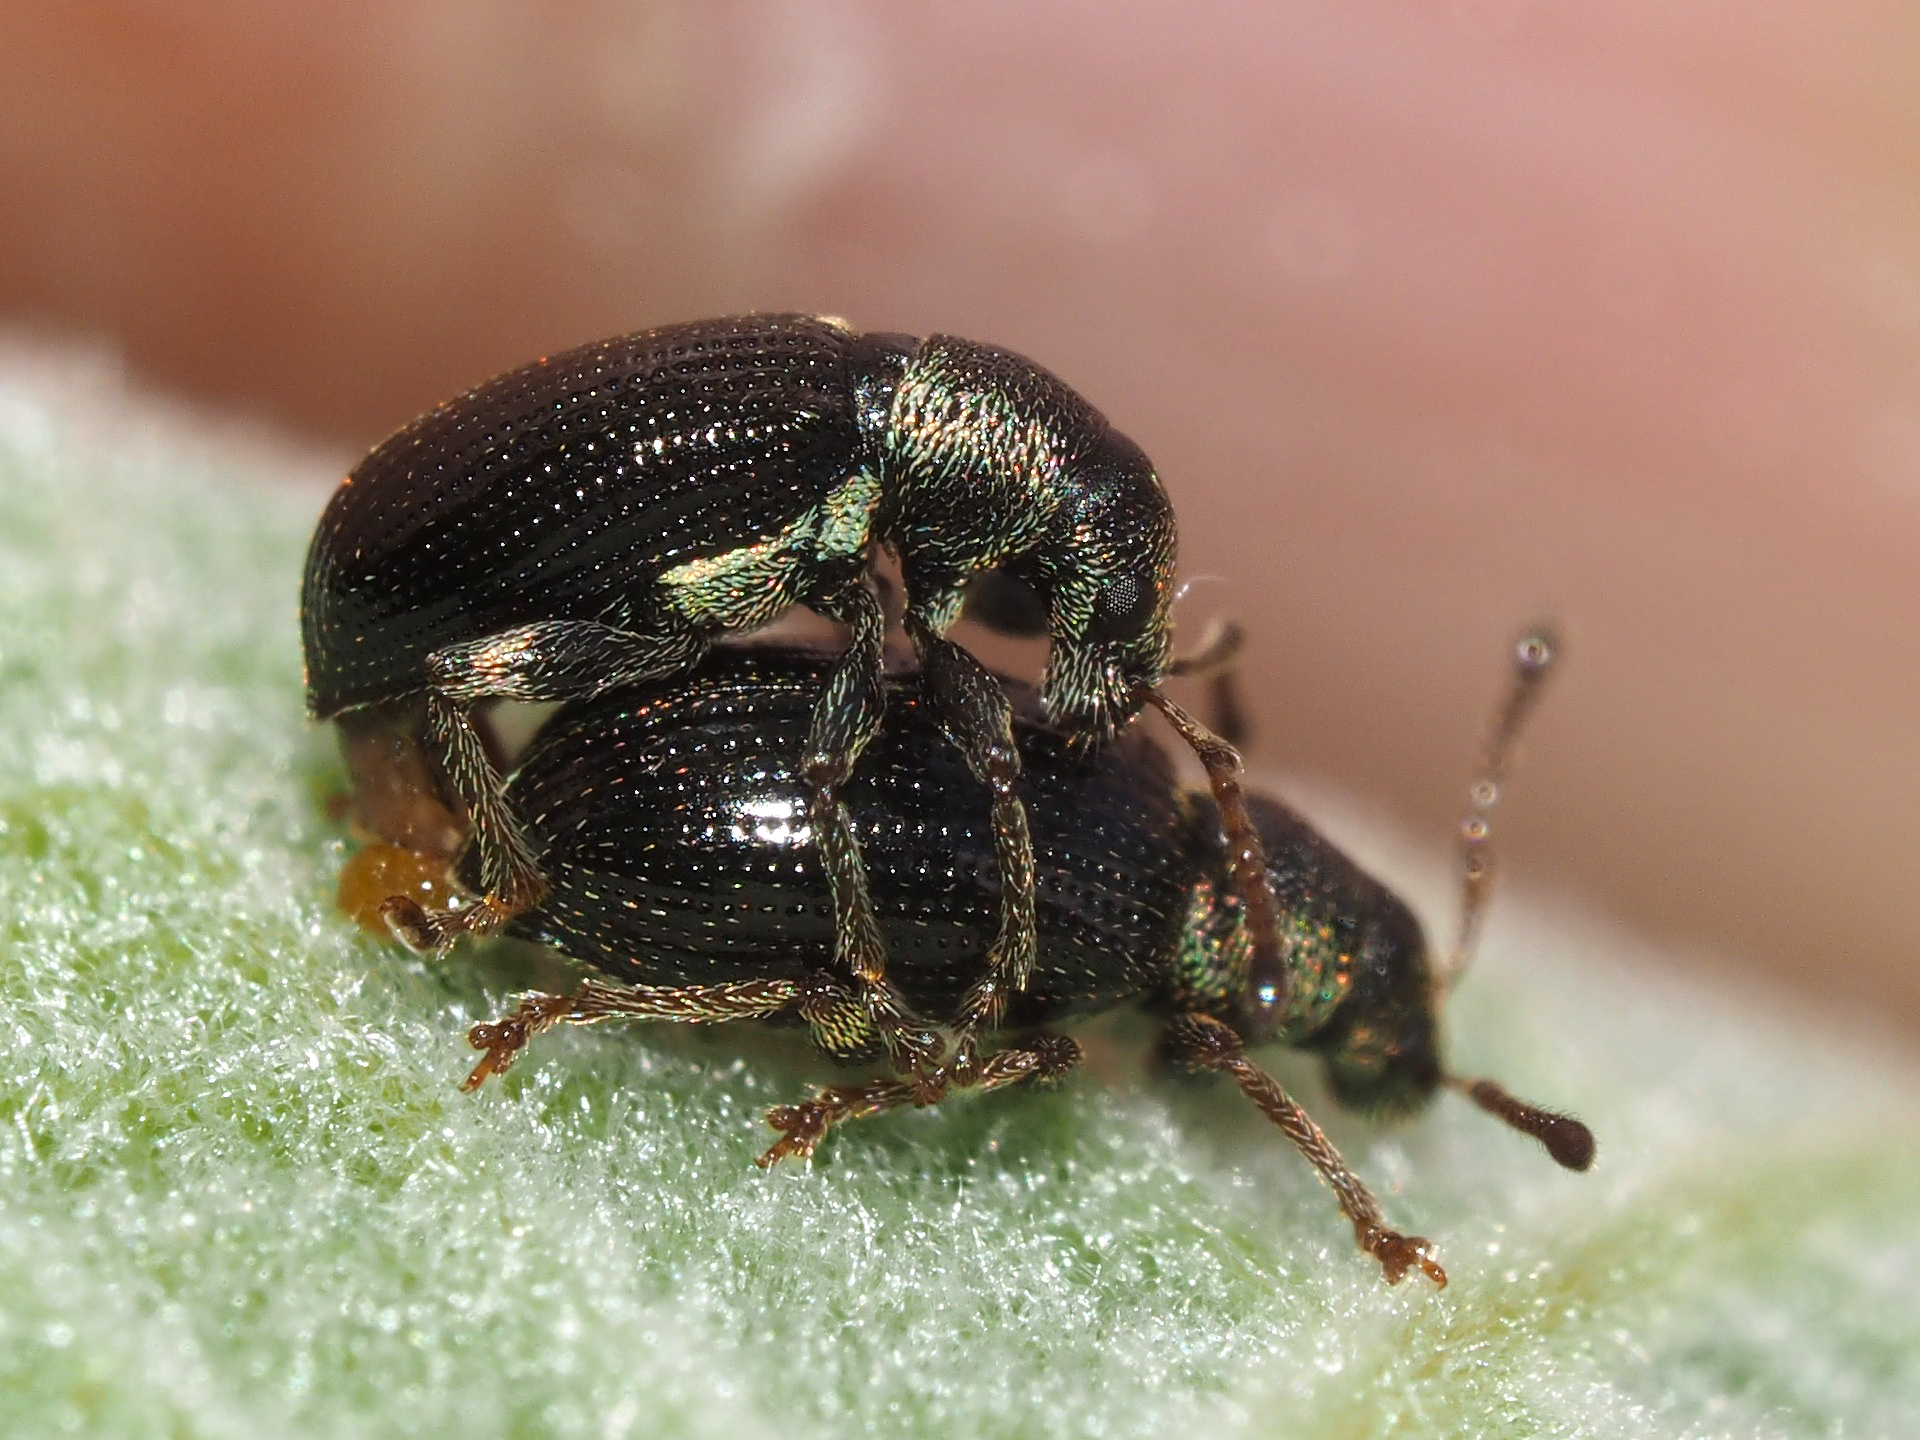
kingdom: Animalia
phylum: Arthropoda
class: Insecta
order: Coleoptera
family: Curculionidae
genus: Phyllobius
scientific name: Phyllobius viridicollis
